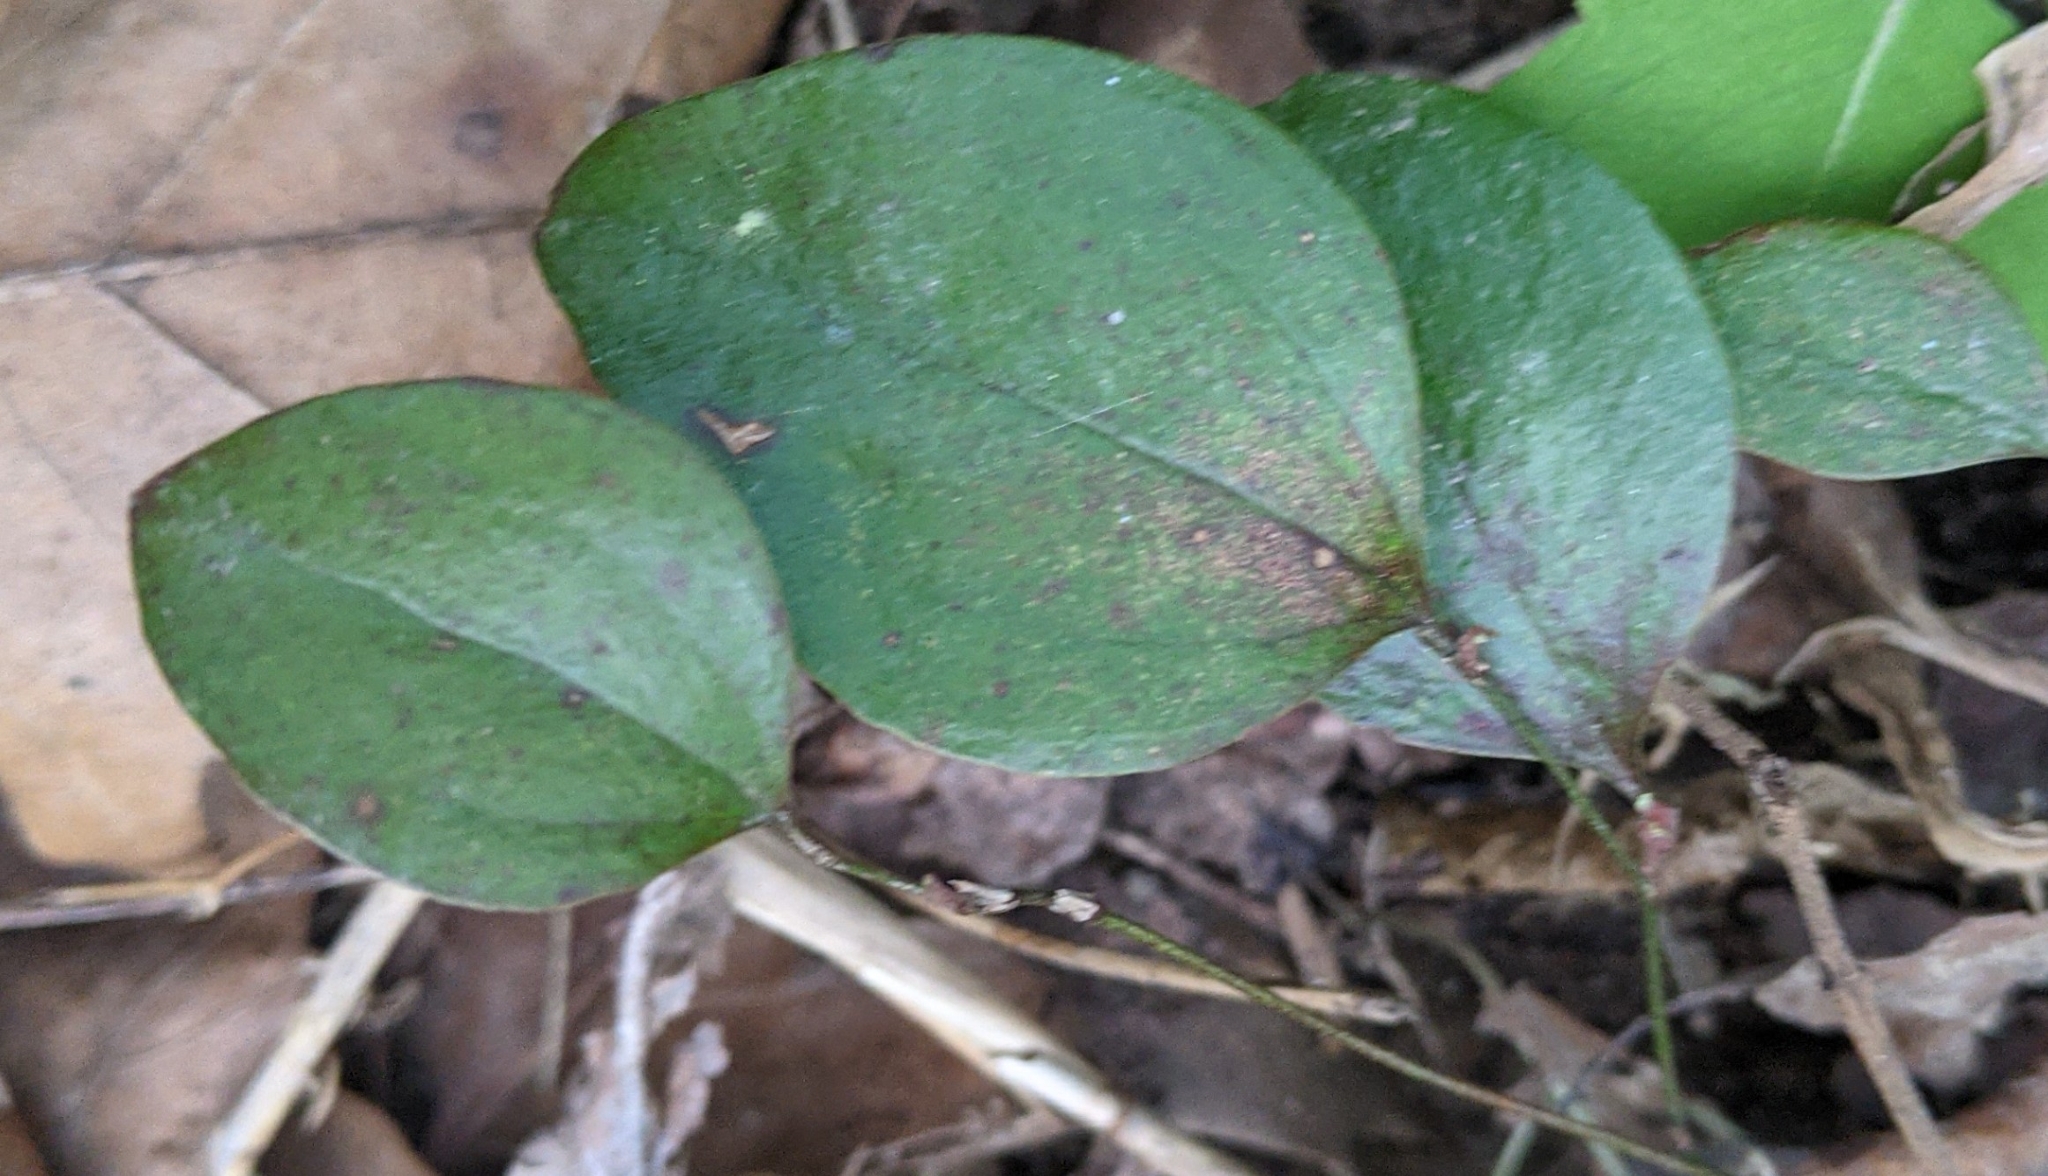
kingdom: Plantae
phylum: Tracheophyta
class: Liliopsida
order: Liliales
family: Smilacaceae
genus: Smilax
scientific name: Smilax glauca
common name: Cat greenbrier
